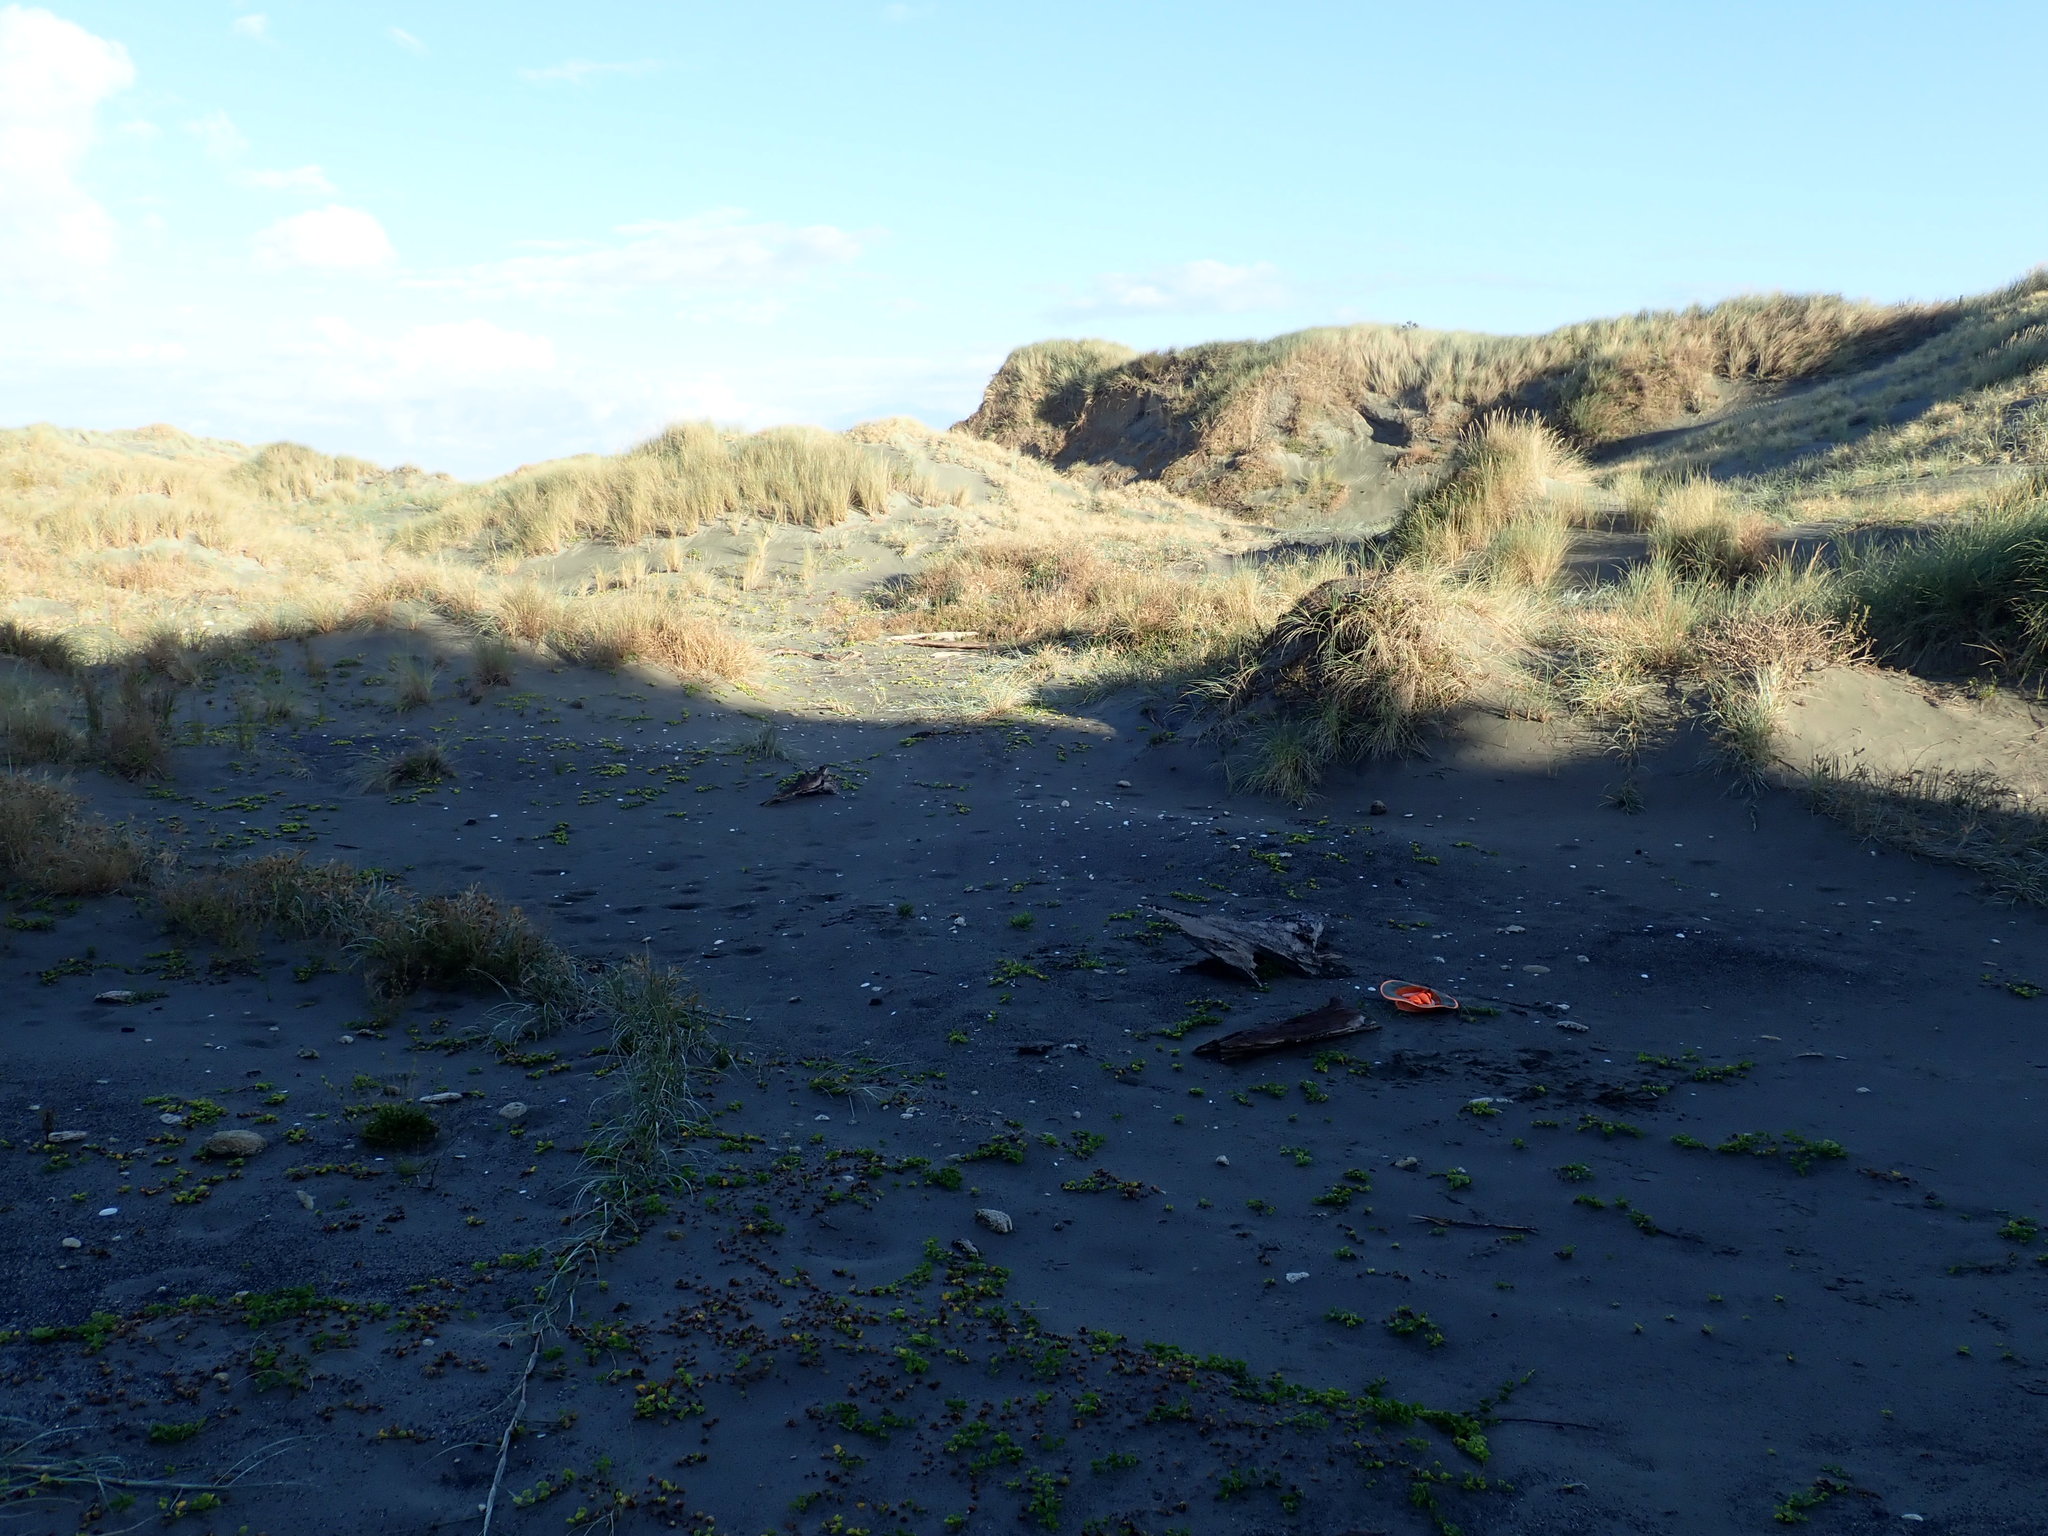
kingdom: Plantae
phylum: Tracheophyta
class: Liliopsida
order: Poales
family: Cyperaceae
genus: Carex
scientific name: Carex pumila
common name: Dwarf sedge
